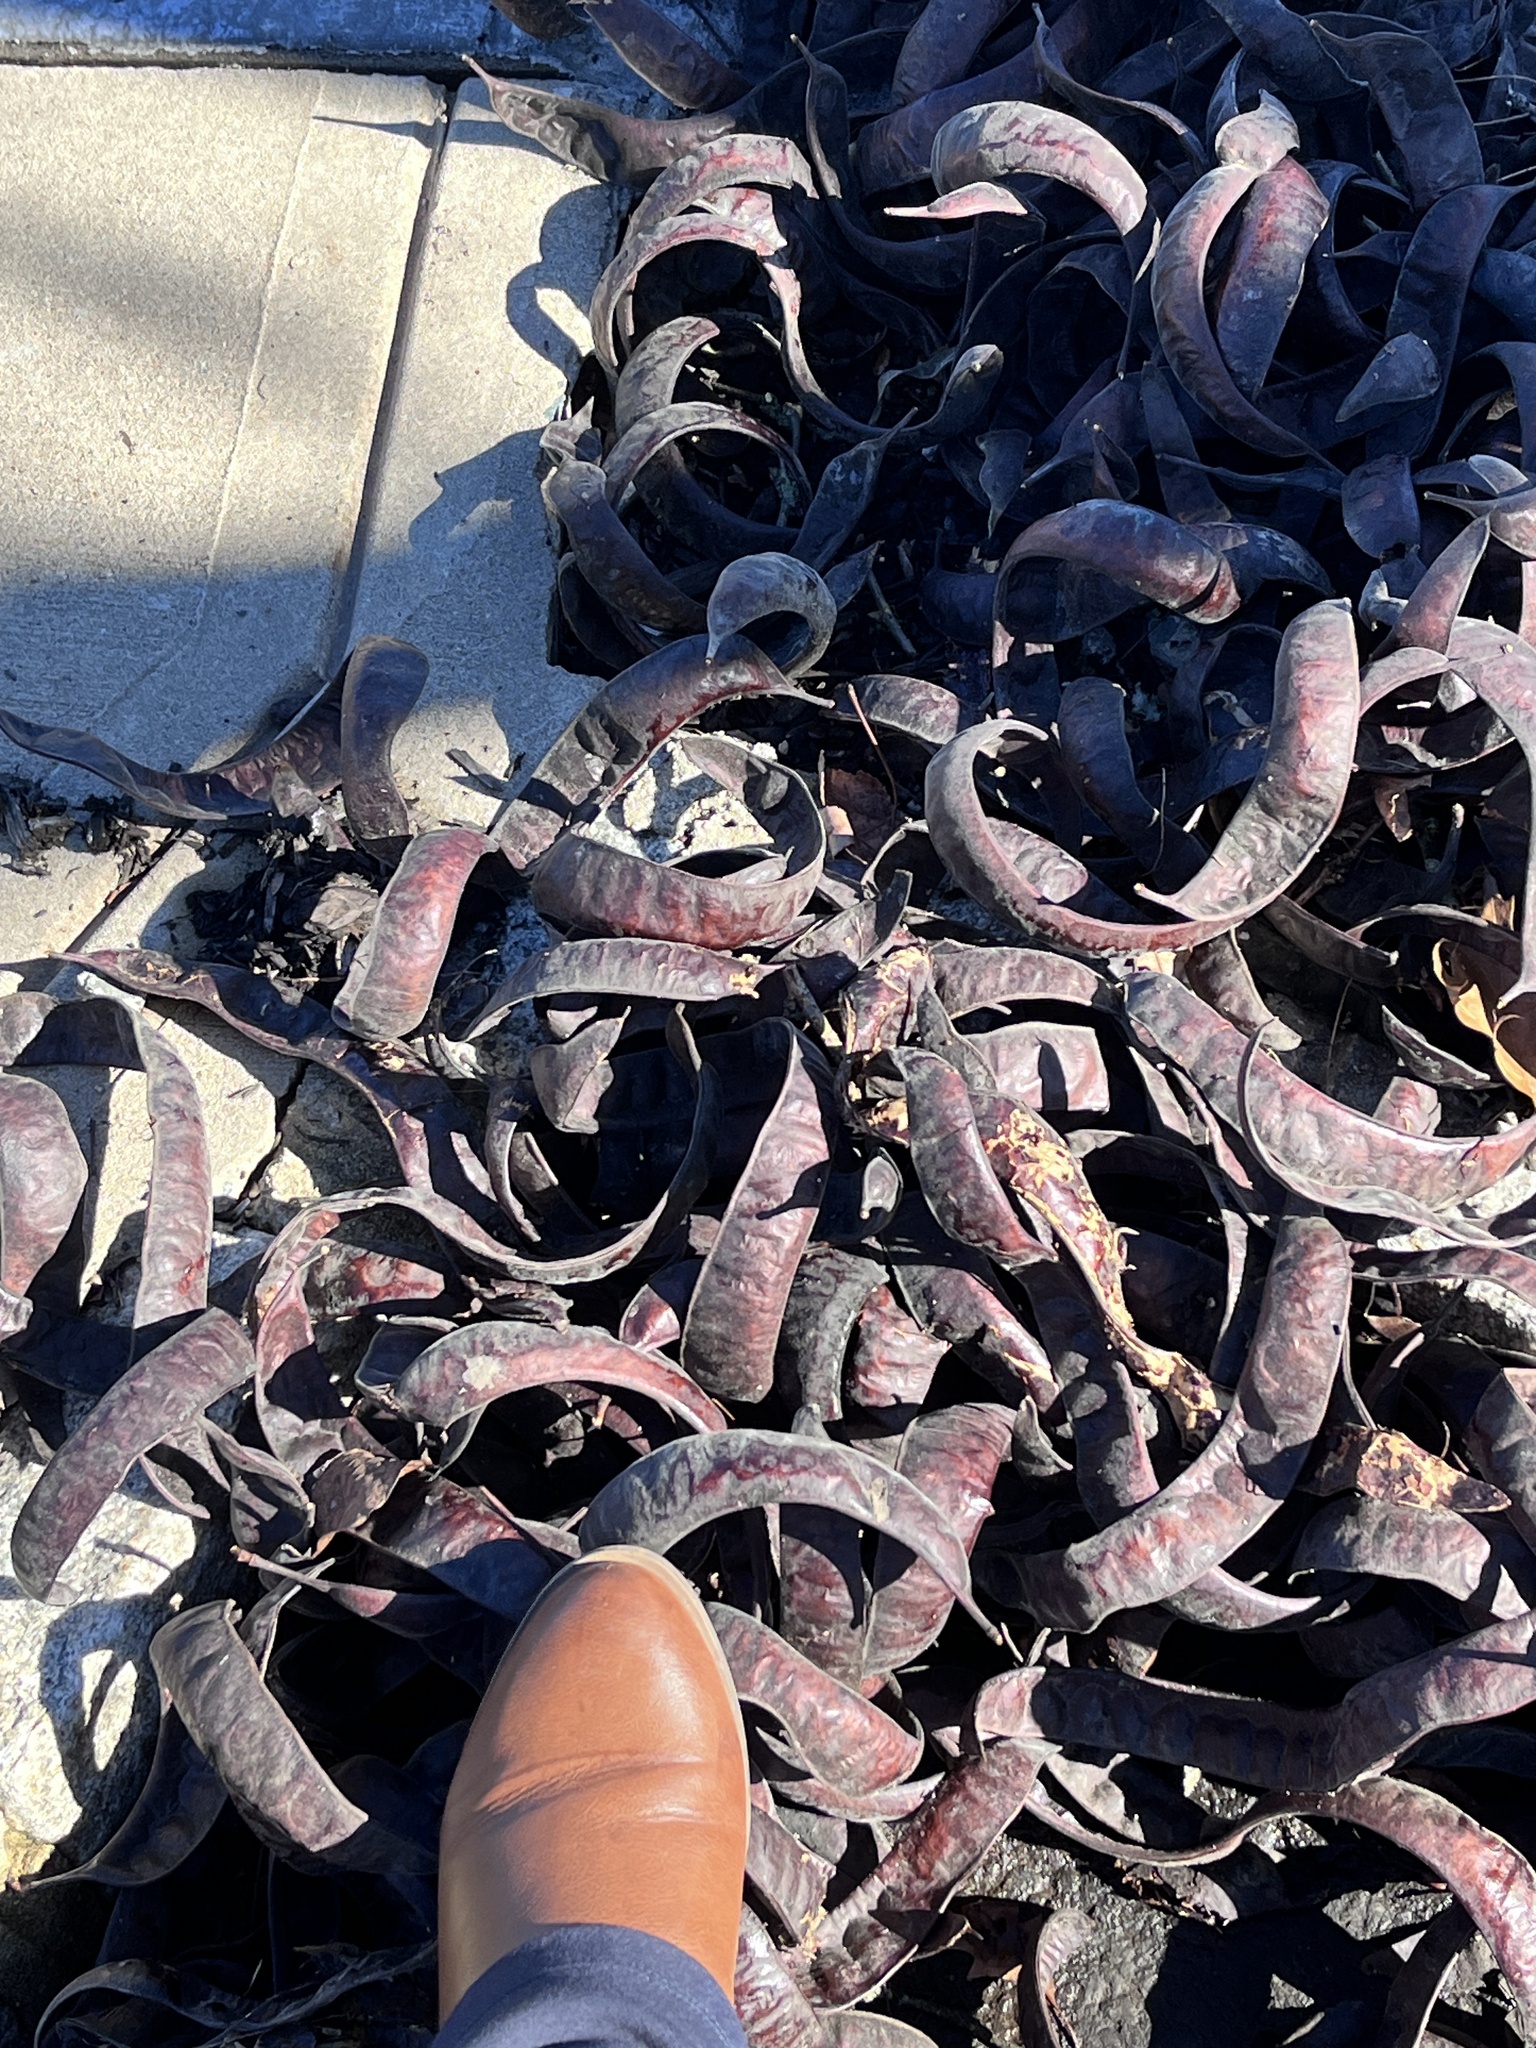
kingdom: Plantae
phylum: Tracheophyta
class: Magnoliopsida
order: Fabales
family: Fabaceae
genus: Gleditsia
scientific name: Gleditsia triacanthos
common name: Common honeylocust
